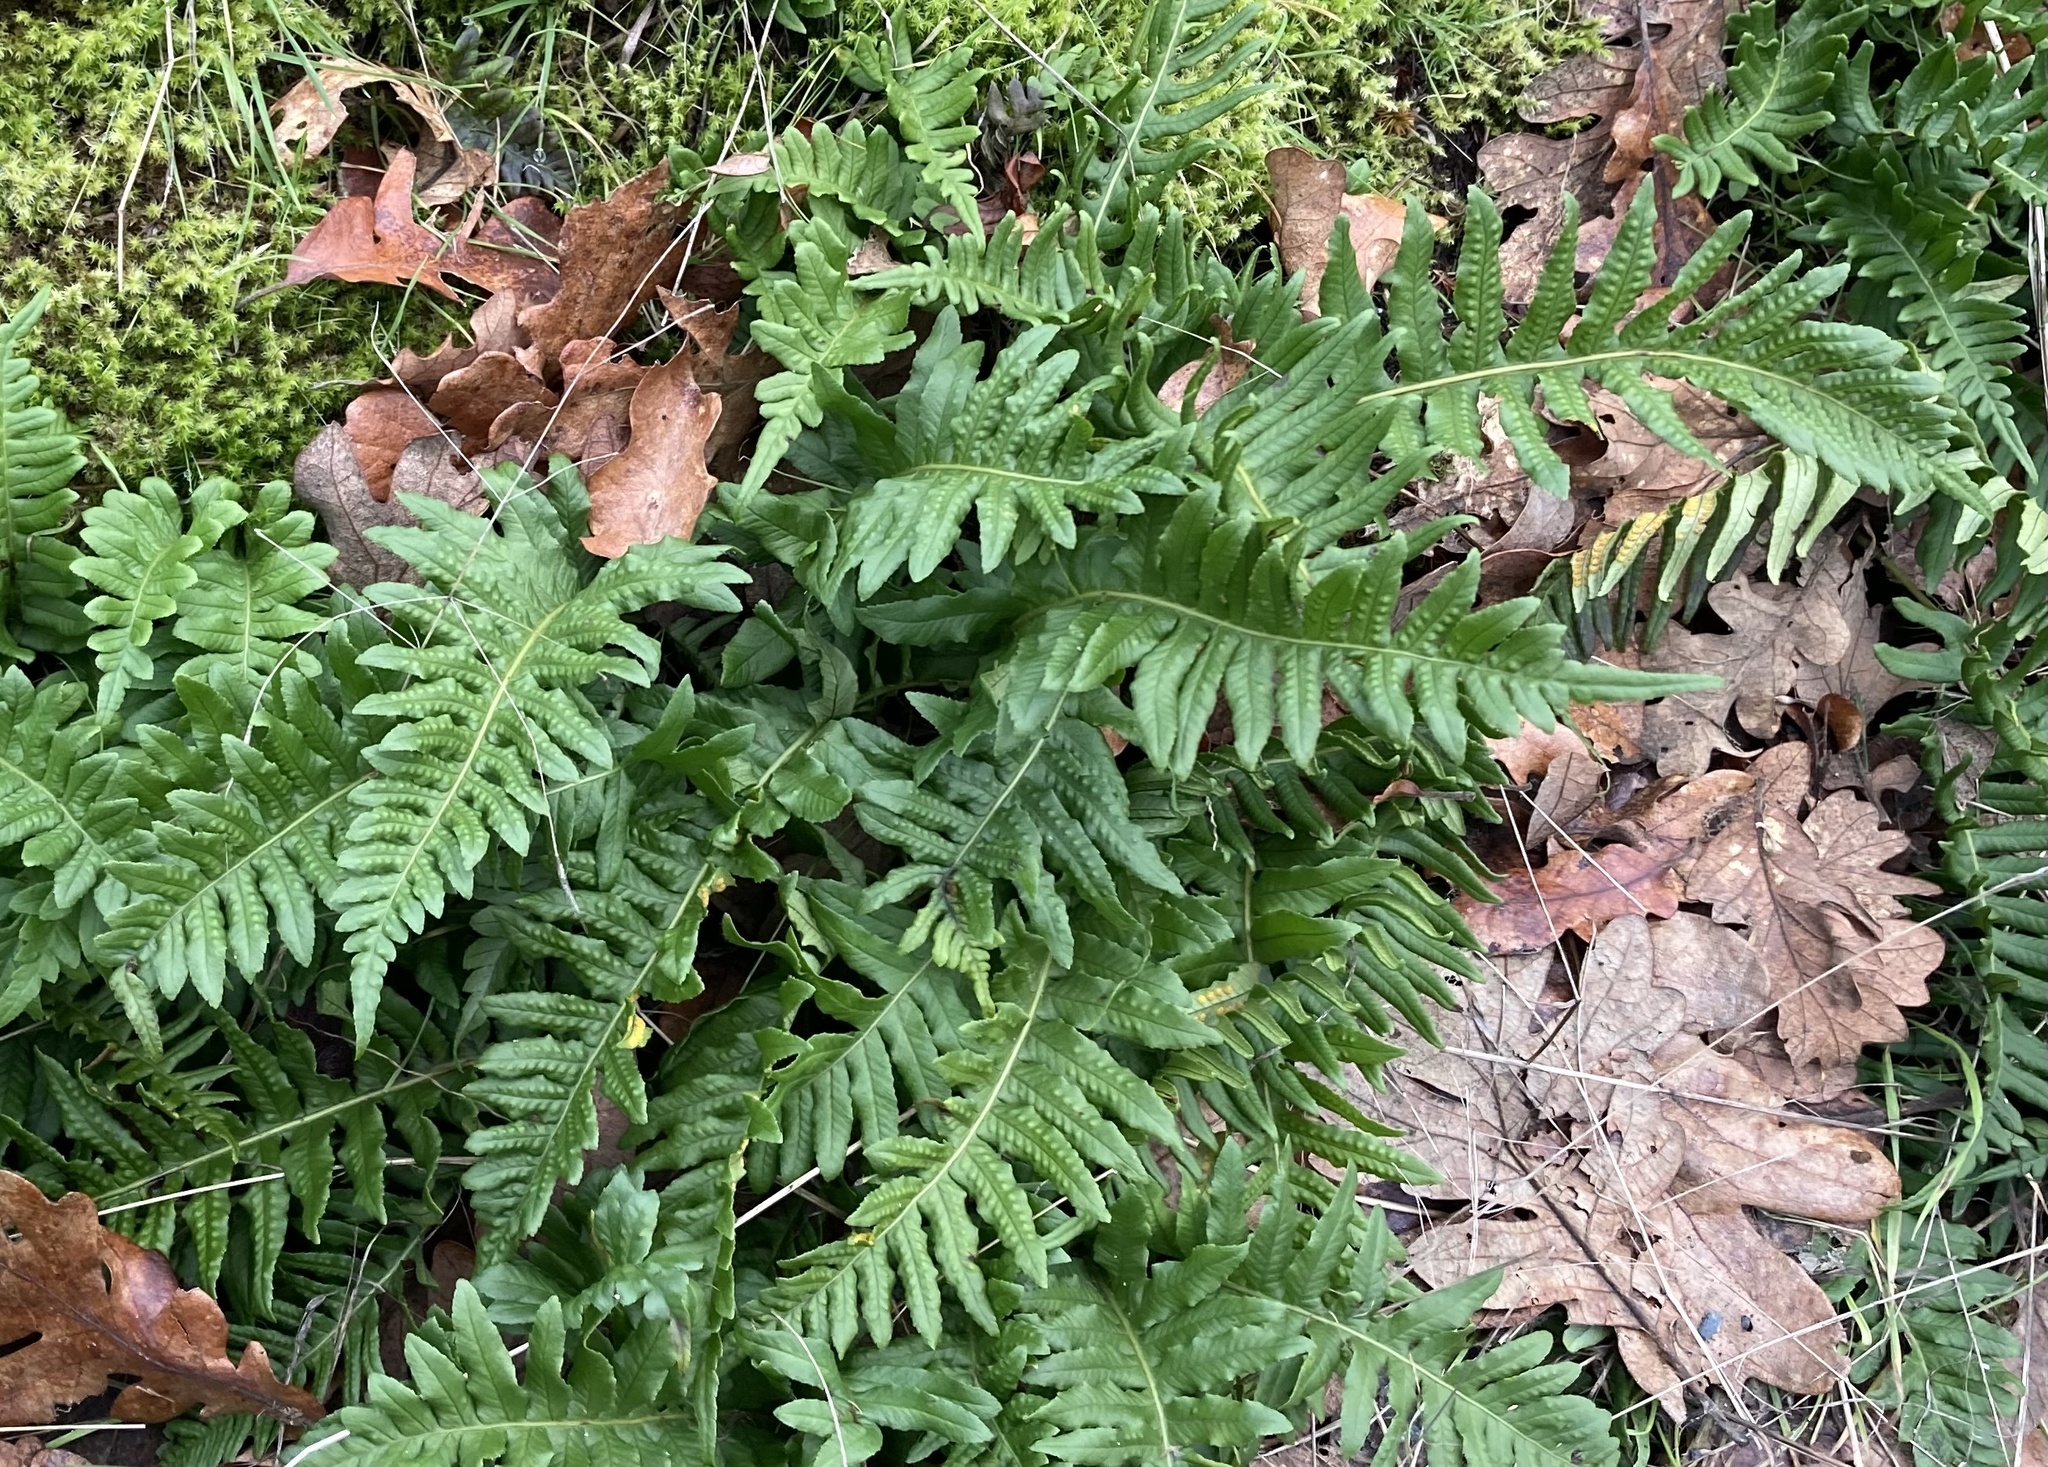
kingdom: Plantae
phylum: Tracheophyta
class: Polypodiopsida
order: Polypodiales
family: Polypodiaceae
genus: Polypodium
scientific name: Polypodium glycyrrhiza
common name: Licorice fern
